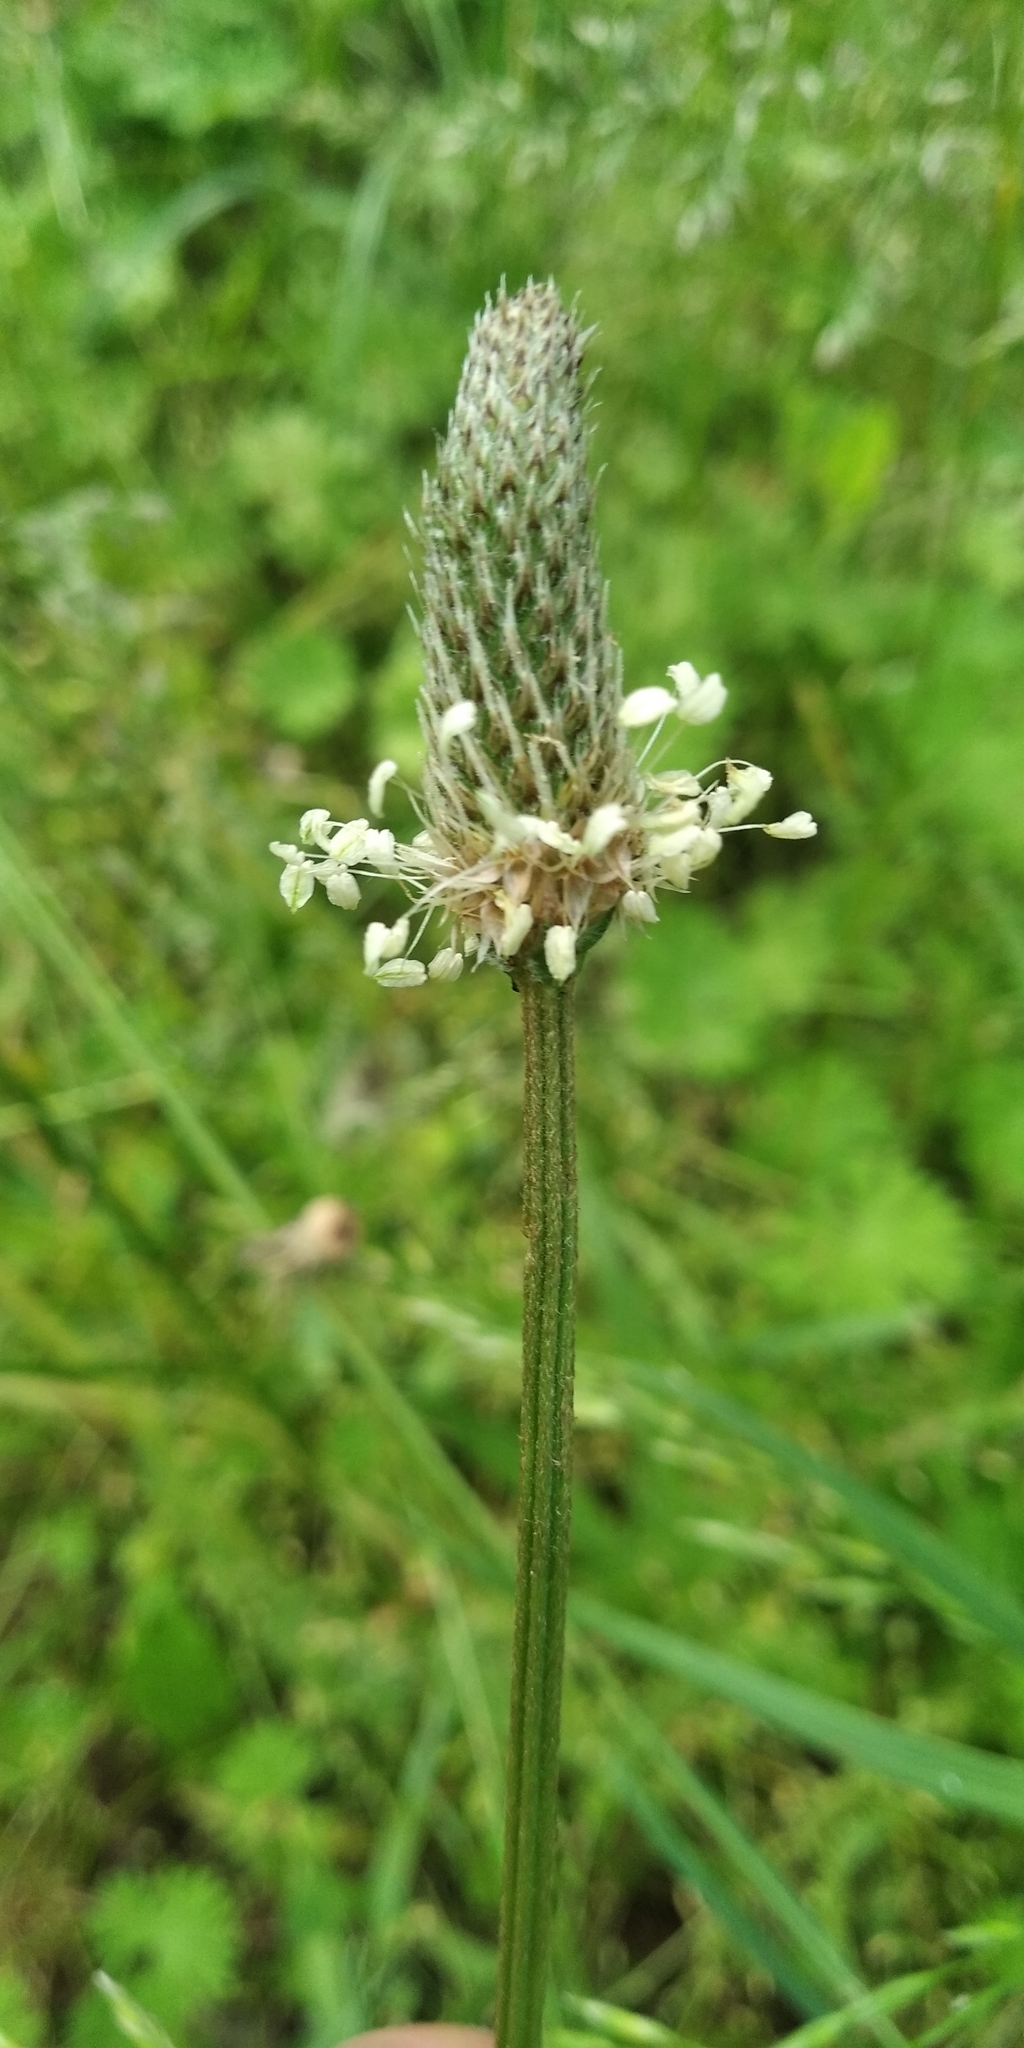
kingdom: Plantae
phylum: Tracheophyta
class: Magnoliopsida
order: Lamiales
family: Plantaginaceae
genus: Plantago
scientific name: Plantago lanceolata
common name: Ribwort plantain
